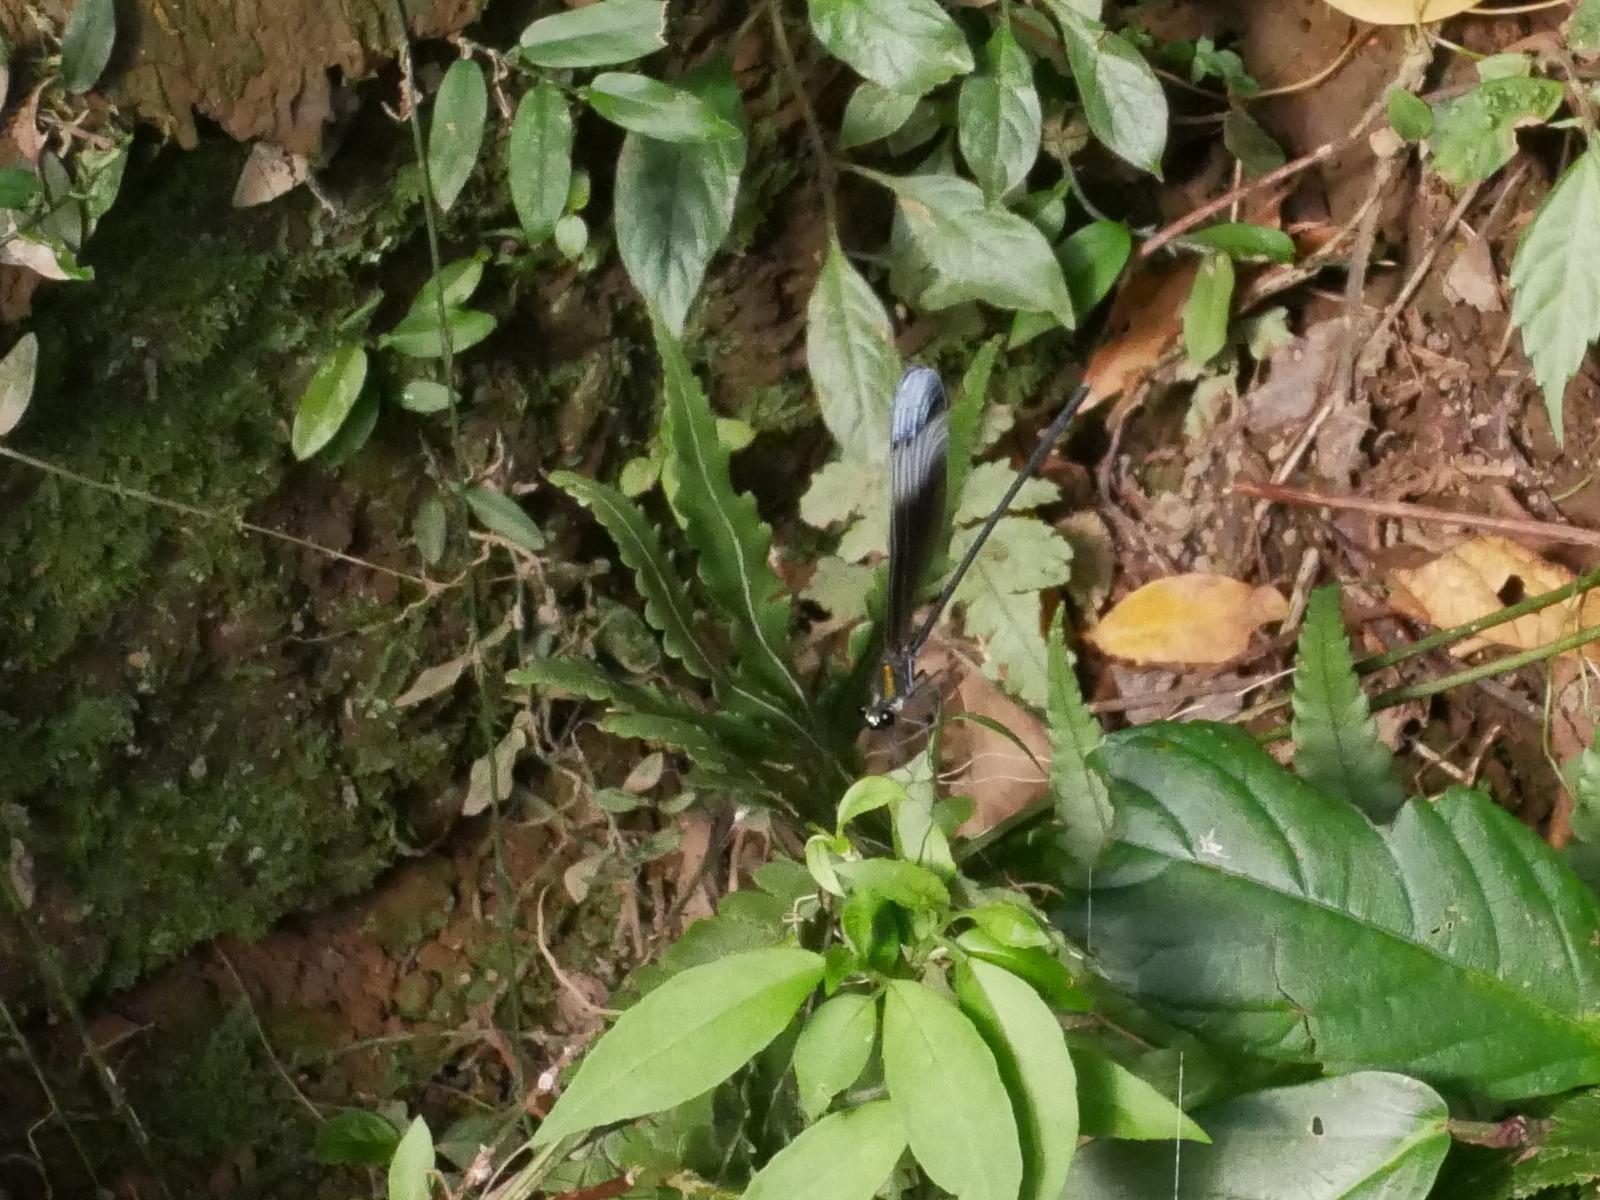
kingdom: Animalia
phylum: Arthropoda
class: Insecta
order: Odonata
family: Calopterygidae
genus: Psolodesmus
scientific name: Psolodesmus mandarinus
